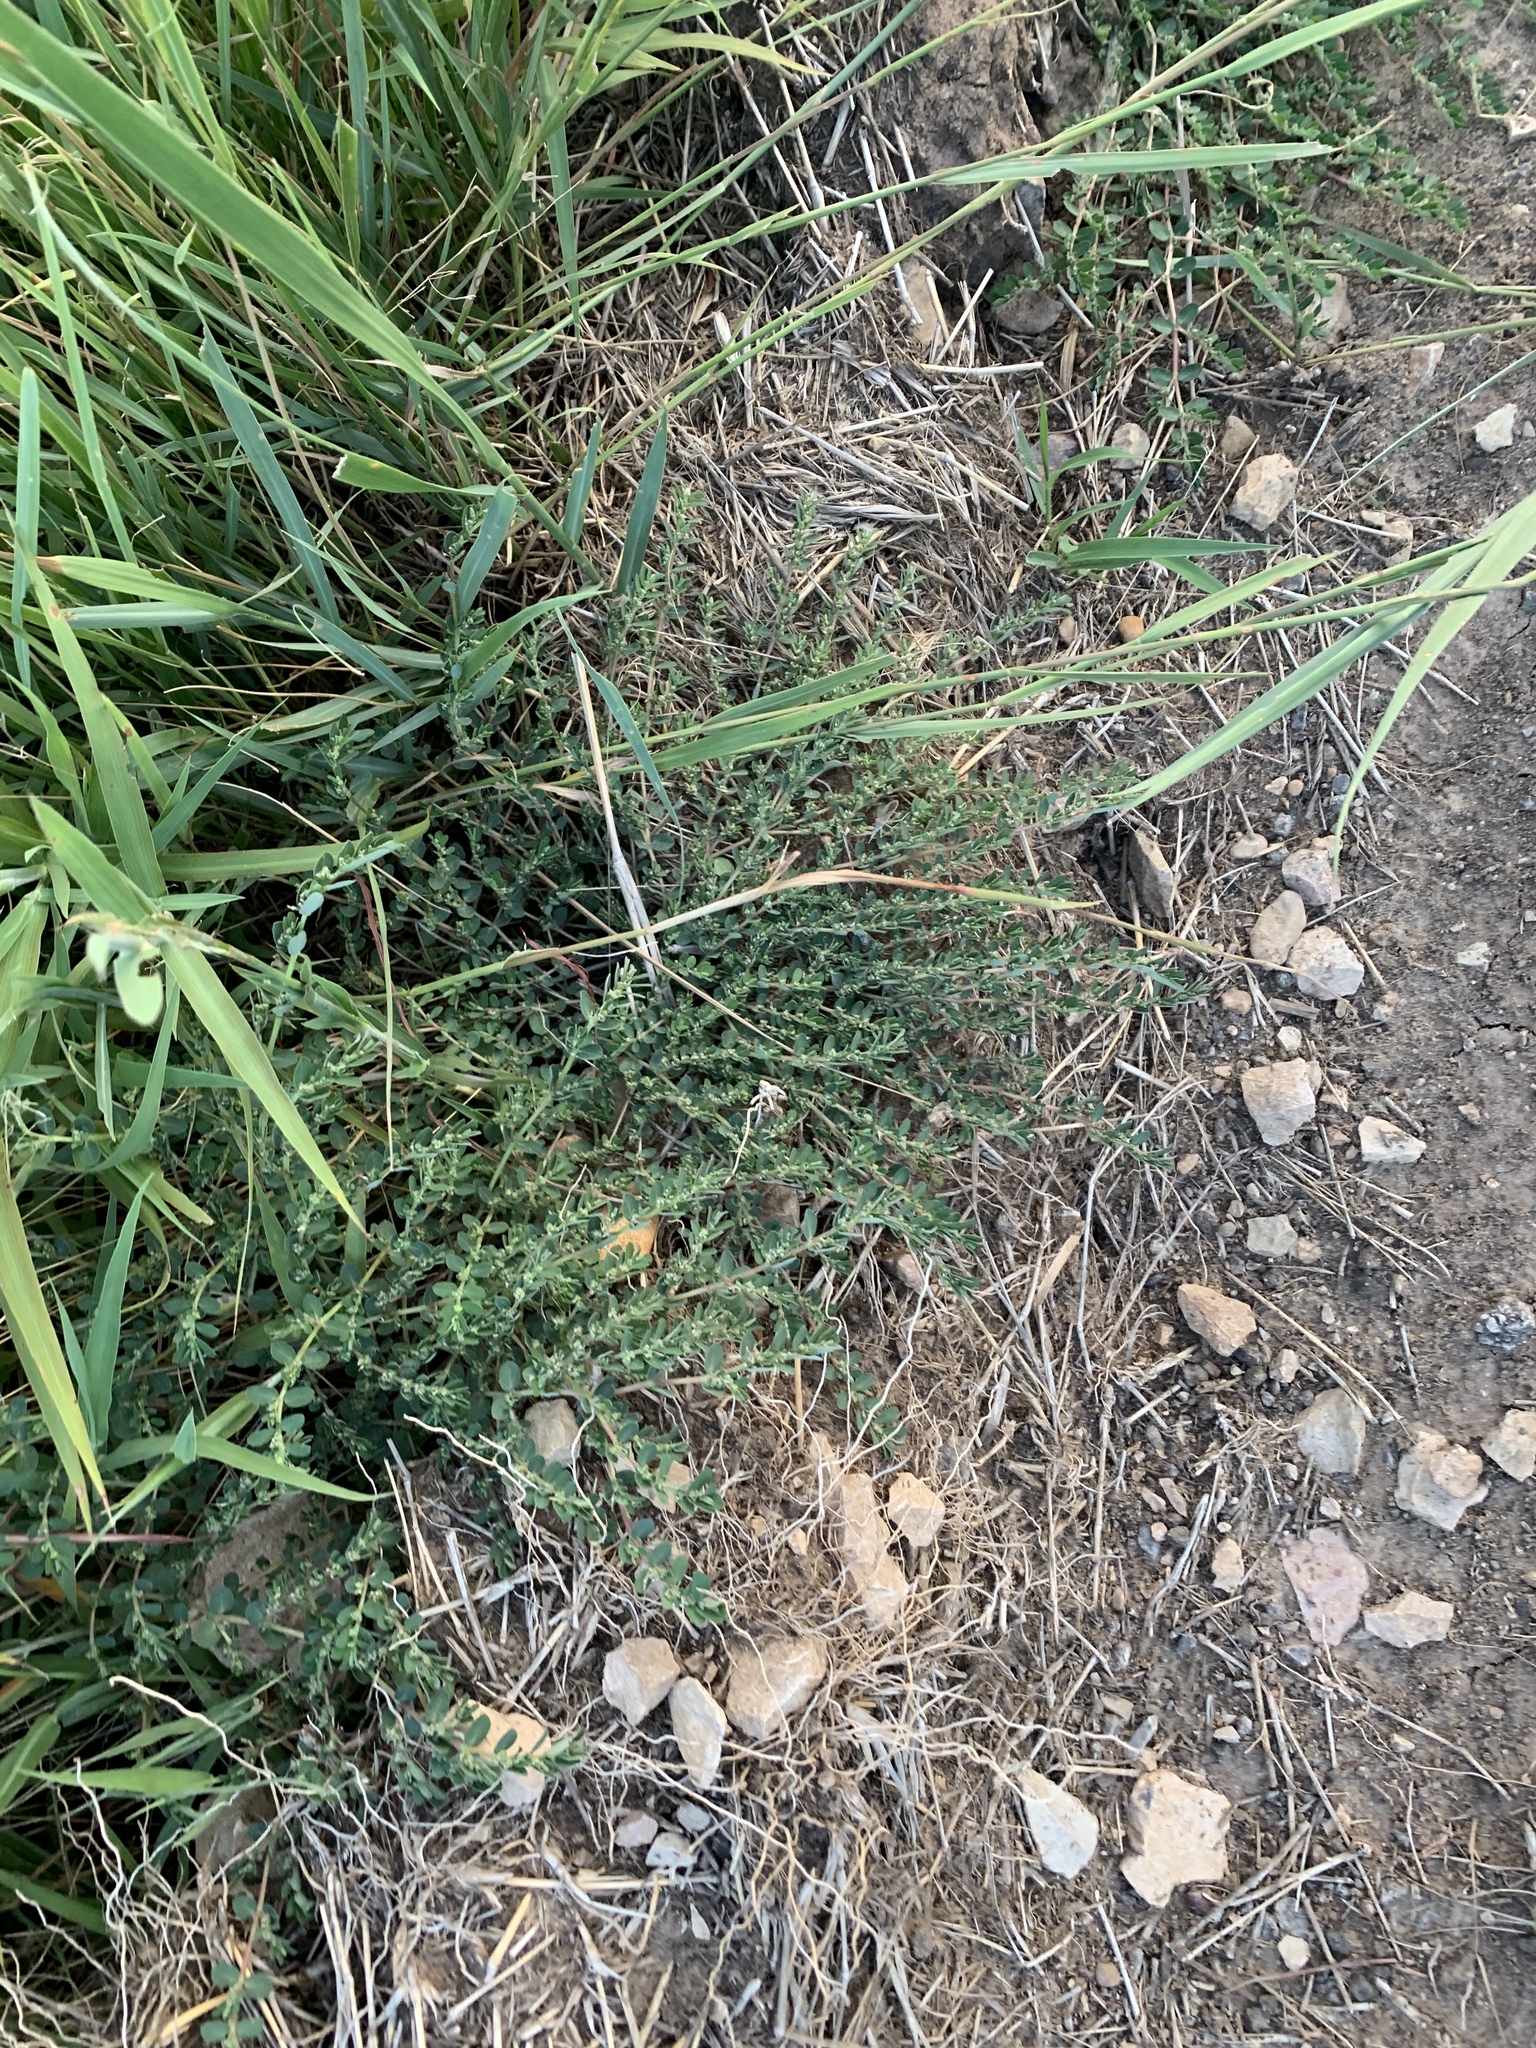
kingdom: Plantae
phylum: Tracheophyta
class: Magnoliopsida
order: Malpighiales
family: Euphorbiaceae
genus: Euphorbia
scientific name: Euphorbia prostrata
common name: Prostrate sandmat
